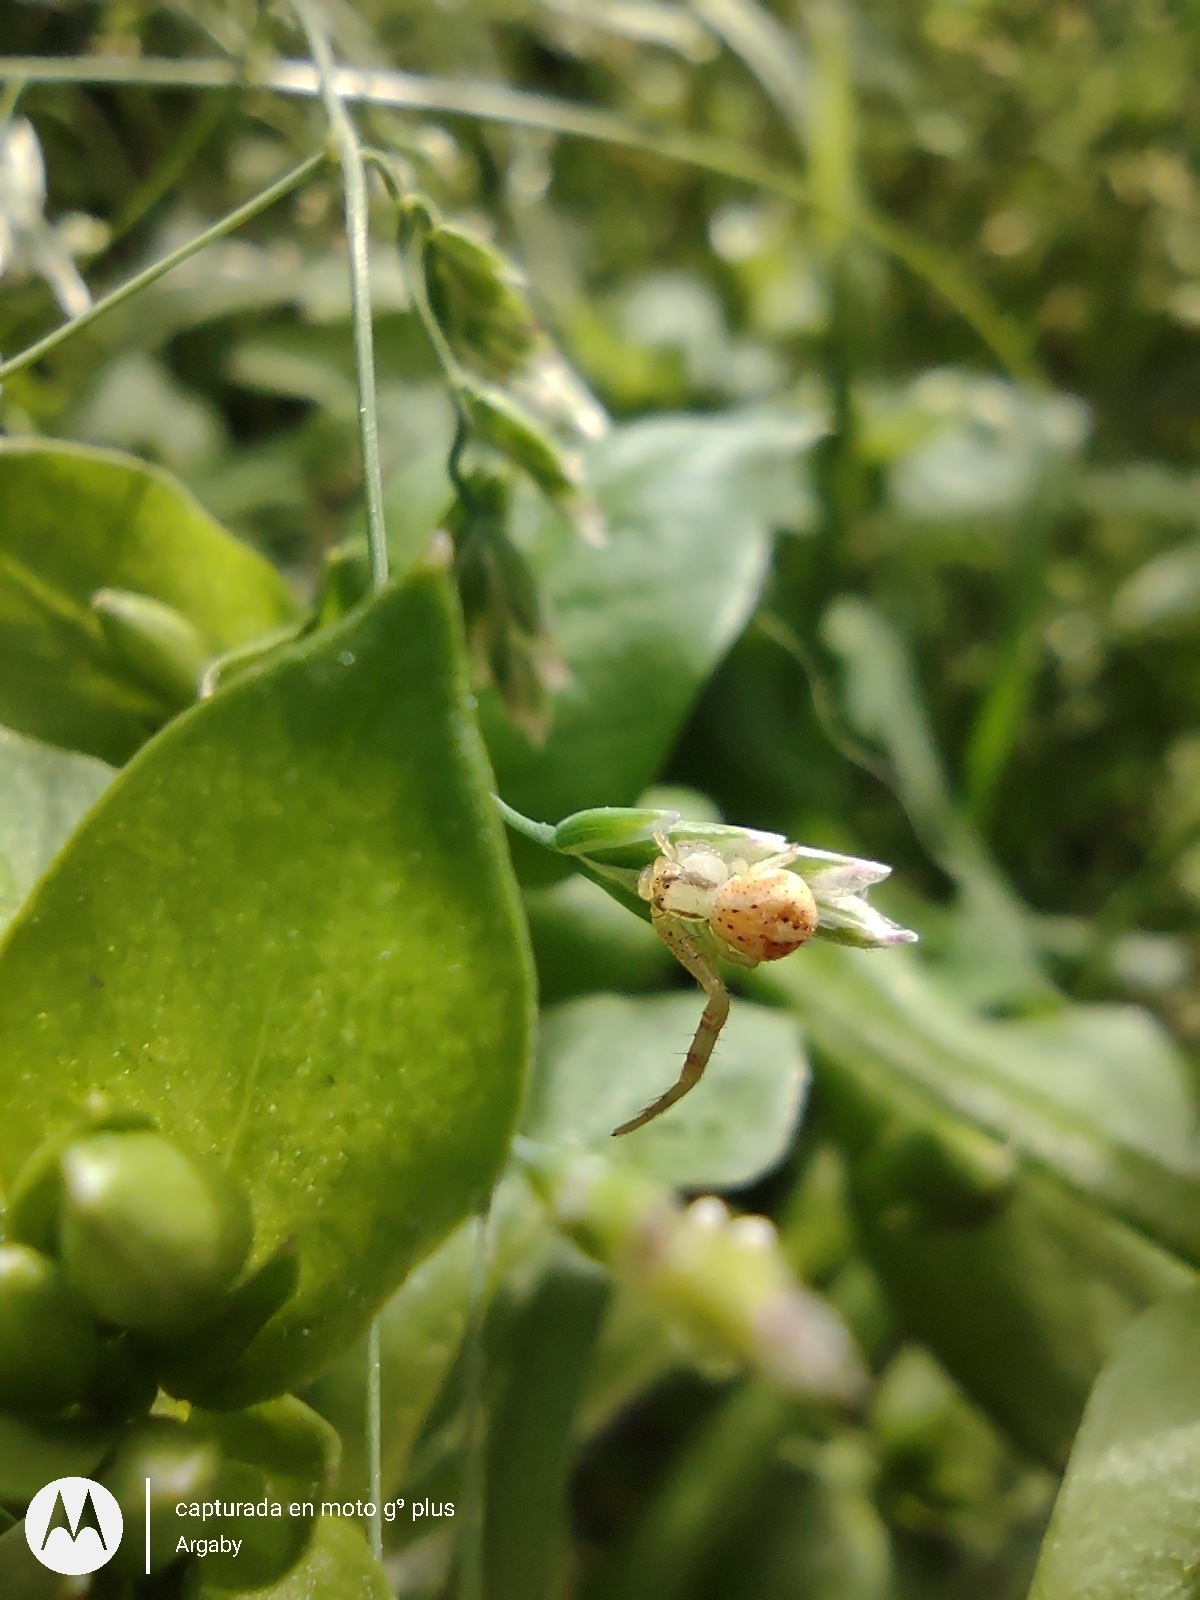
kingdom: Animalia
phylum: Arthropoda
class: Arachnida
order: Araneae
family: Thomisidae
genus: Misumenops
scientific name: Misumenops
